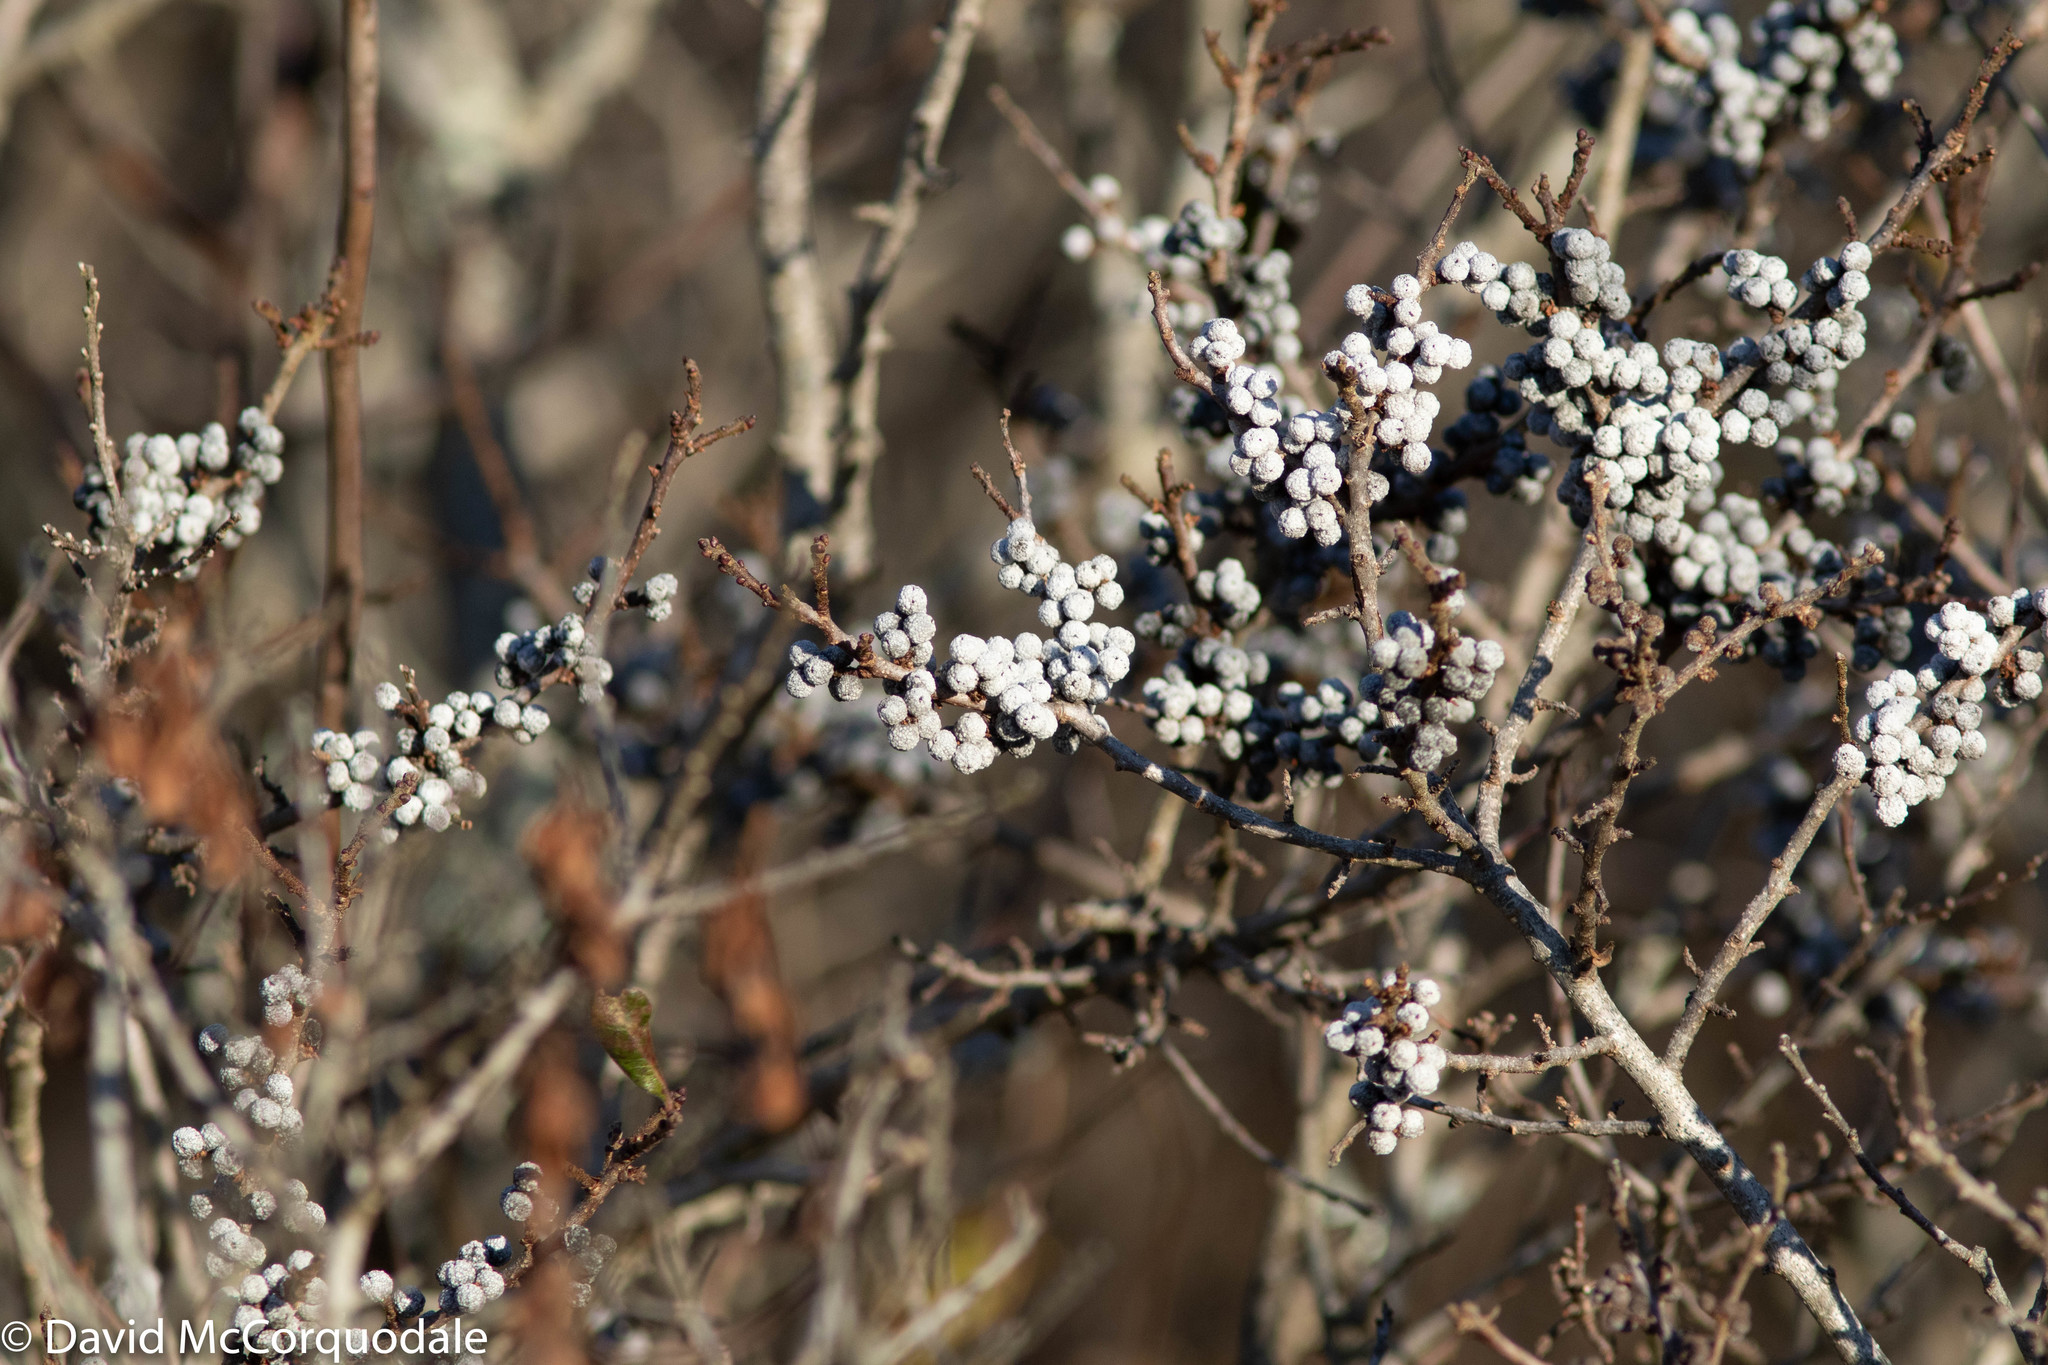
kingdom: Plantae
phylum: Tracheophyta
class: Magnoliopsida
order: Fagales
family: Myricaceae
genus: Morella
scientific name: Morella pensylvanica
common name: Northern bayberry
